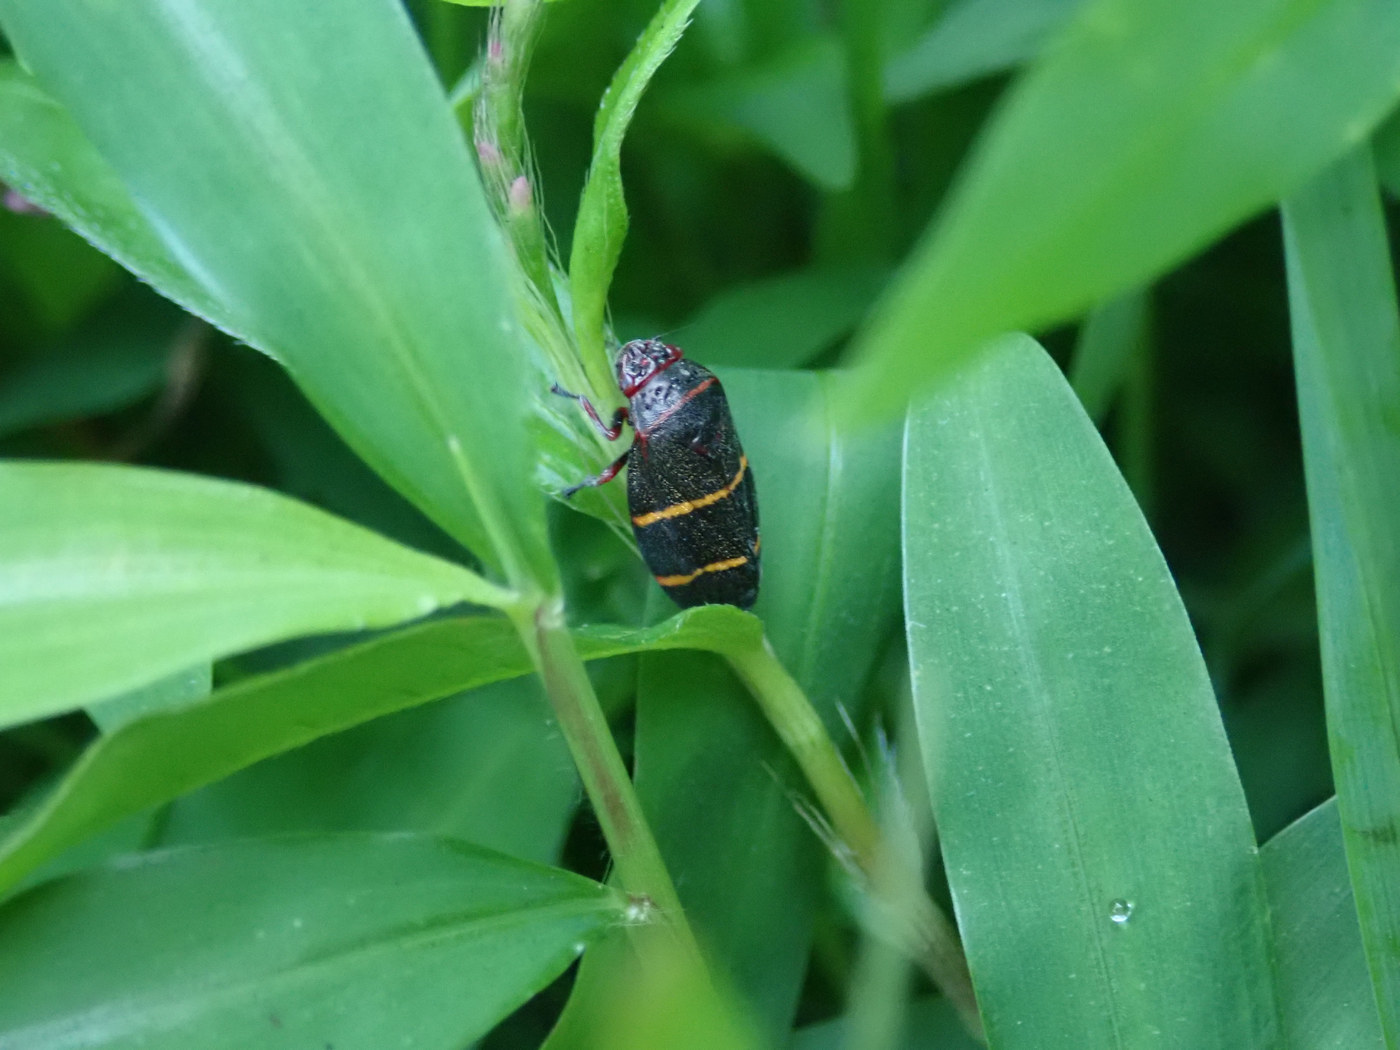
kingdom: Animalia
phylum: Arthropoda
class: Insecta
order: Hemiptera
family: Cercopidae
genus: Prosapia
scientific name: Prosapia bicincta
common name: Twolined spittlebug
